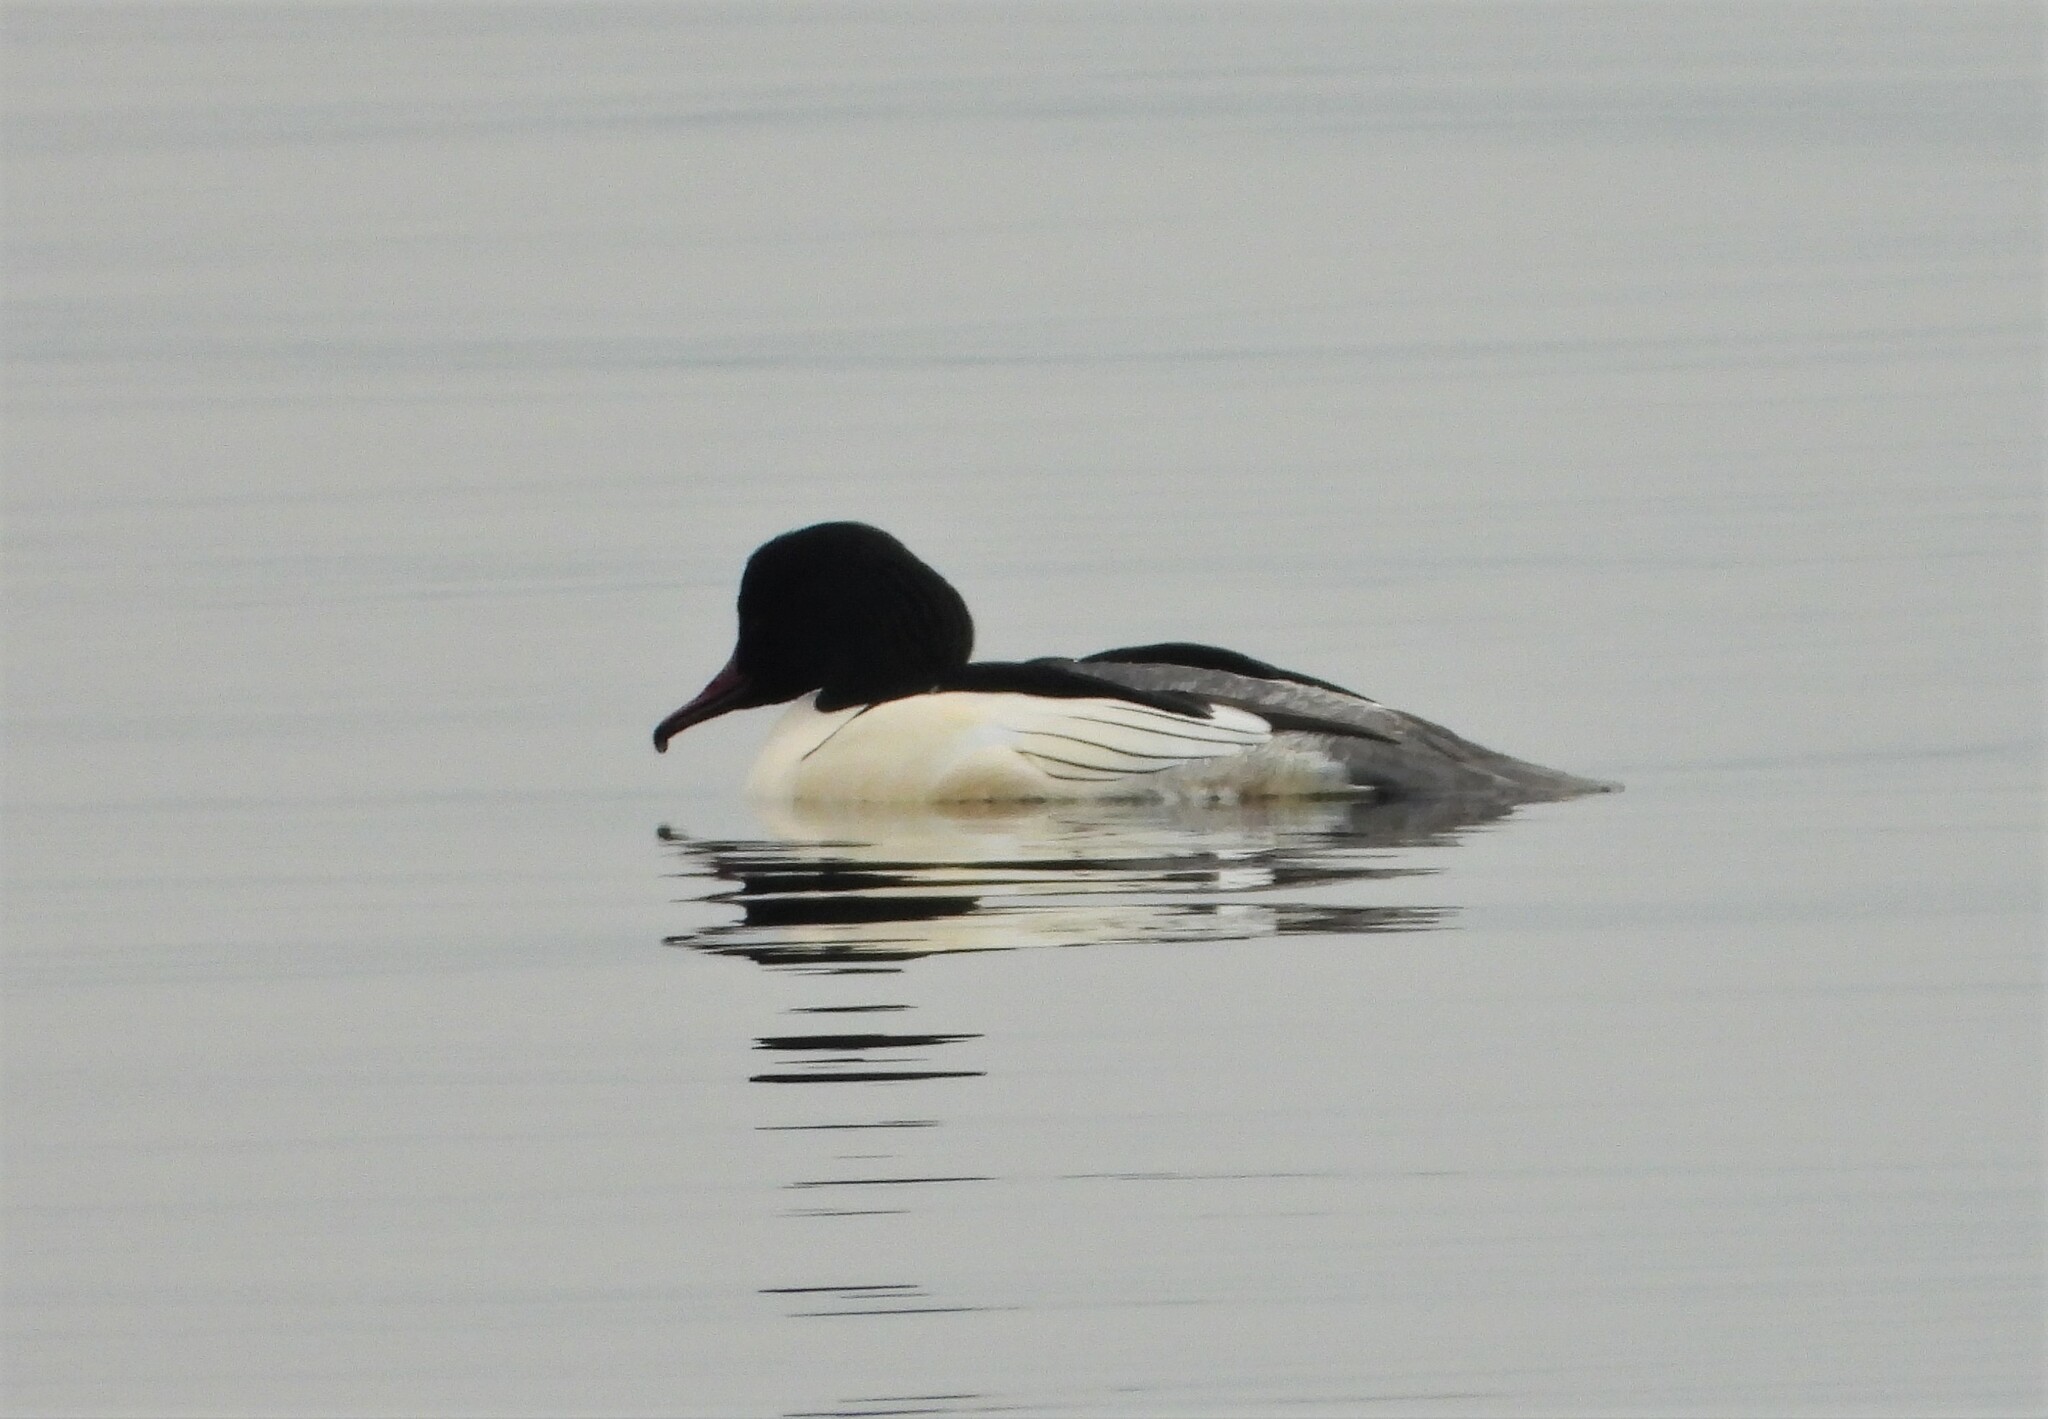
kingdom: Animalia
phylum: Chordata
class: Aves
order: Anseriformes
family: Anatidae
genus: Mergus
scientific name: Mergus merganser
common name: Common merganser
